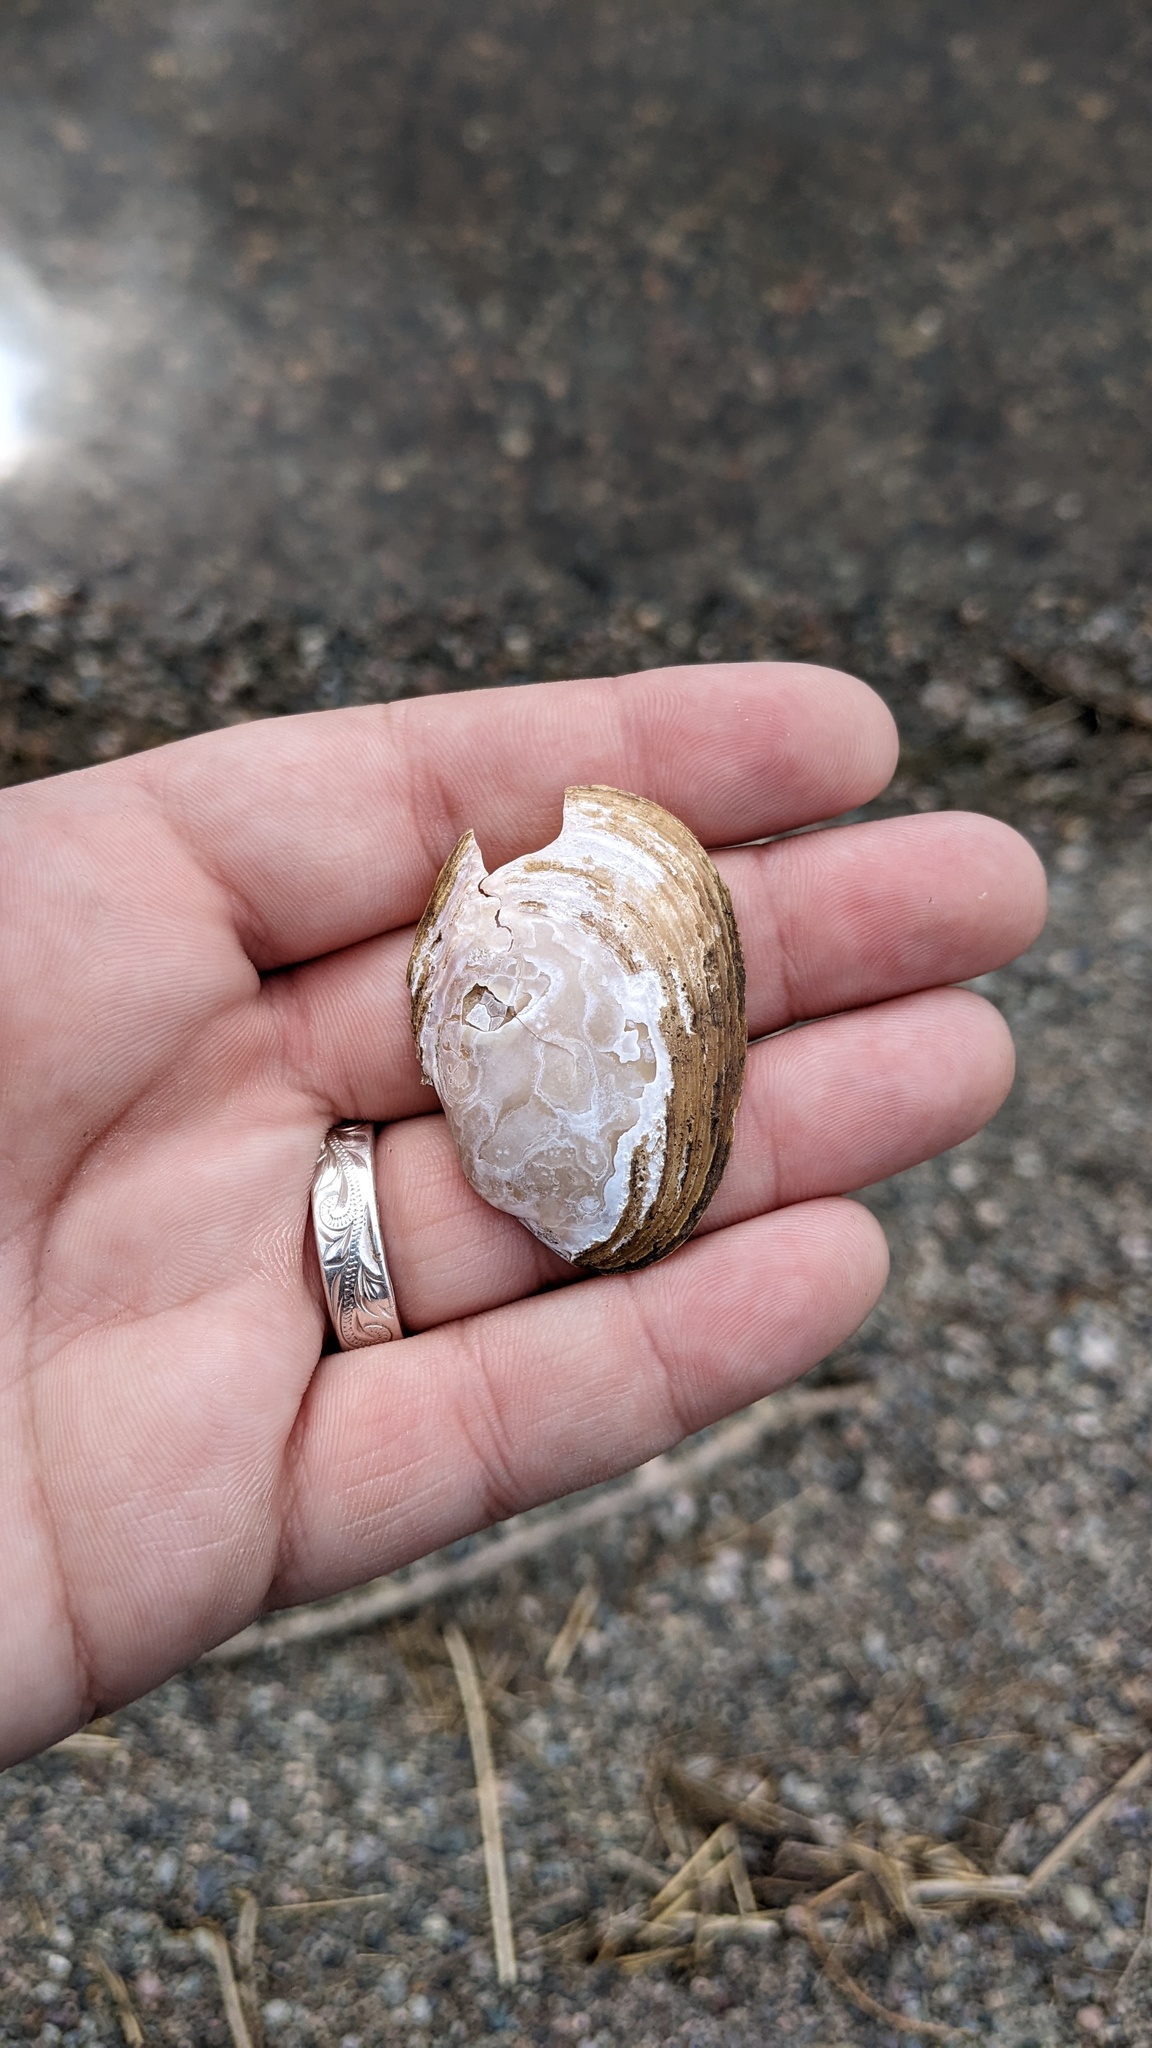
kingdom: Animalia
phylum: Mollusca
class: Bivalvia
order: Unionida
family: Unionidae
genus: Lampsilis
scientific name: Lampsilis cariosa
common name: Yellow lampmussel
